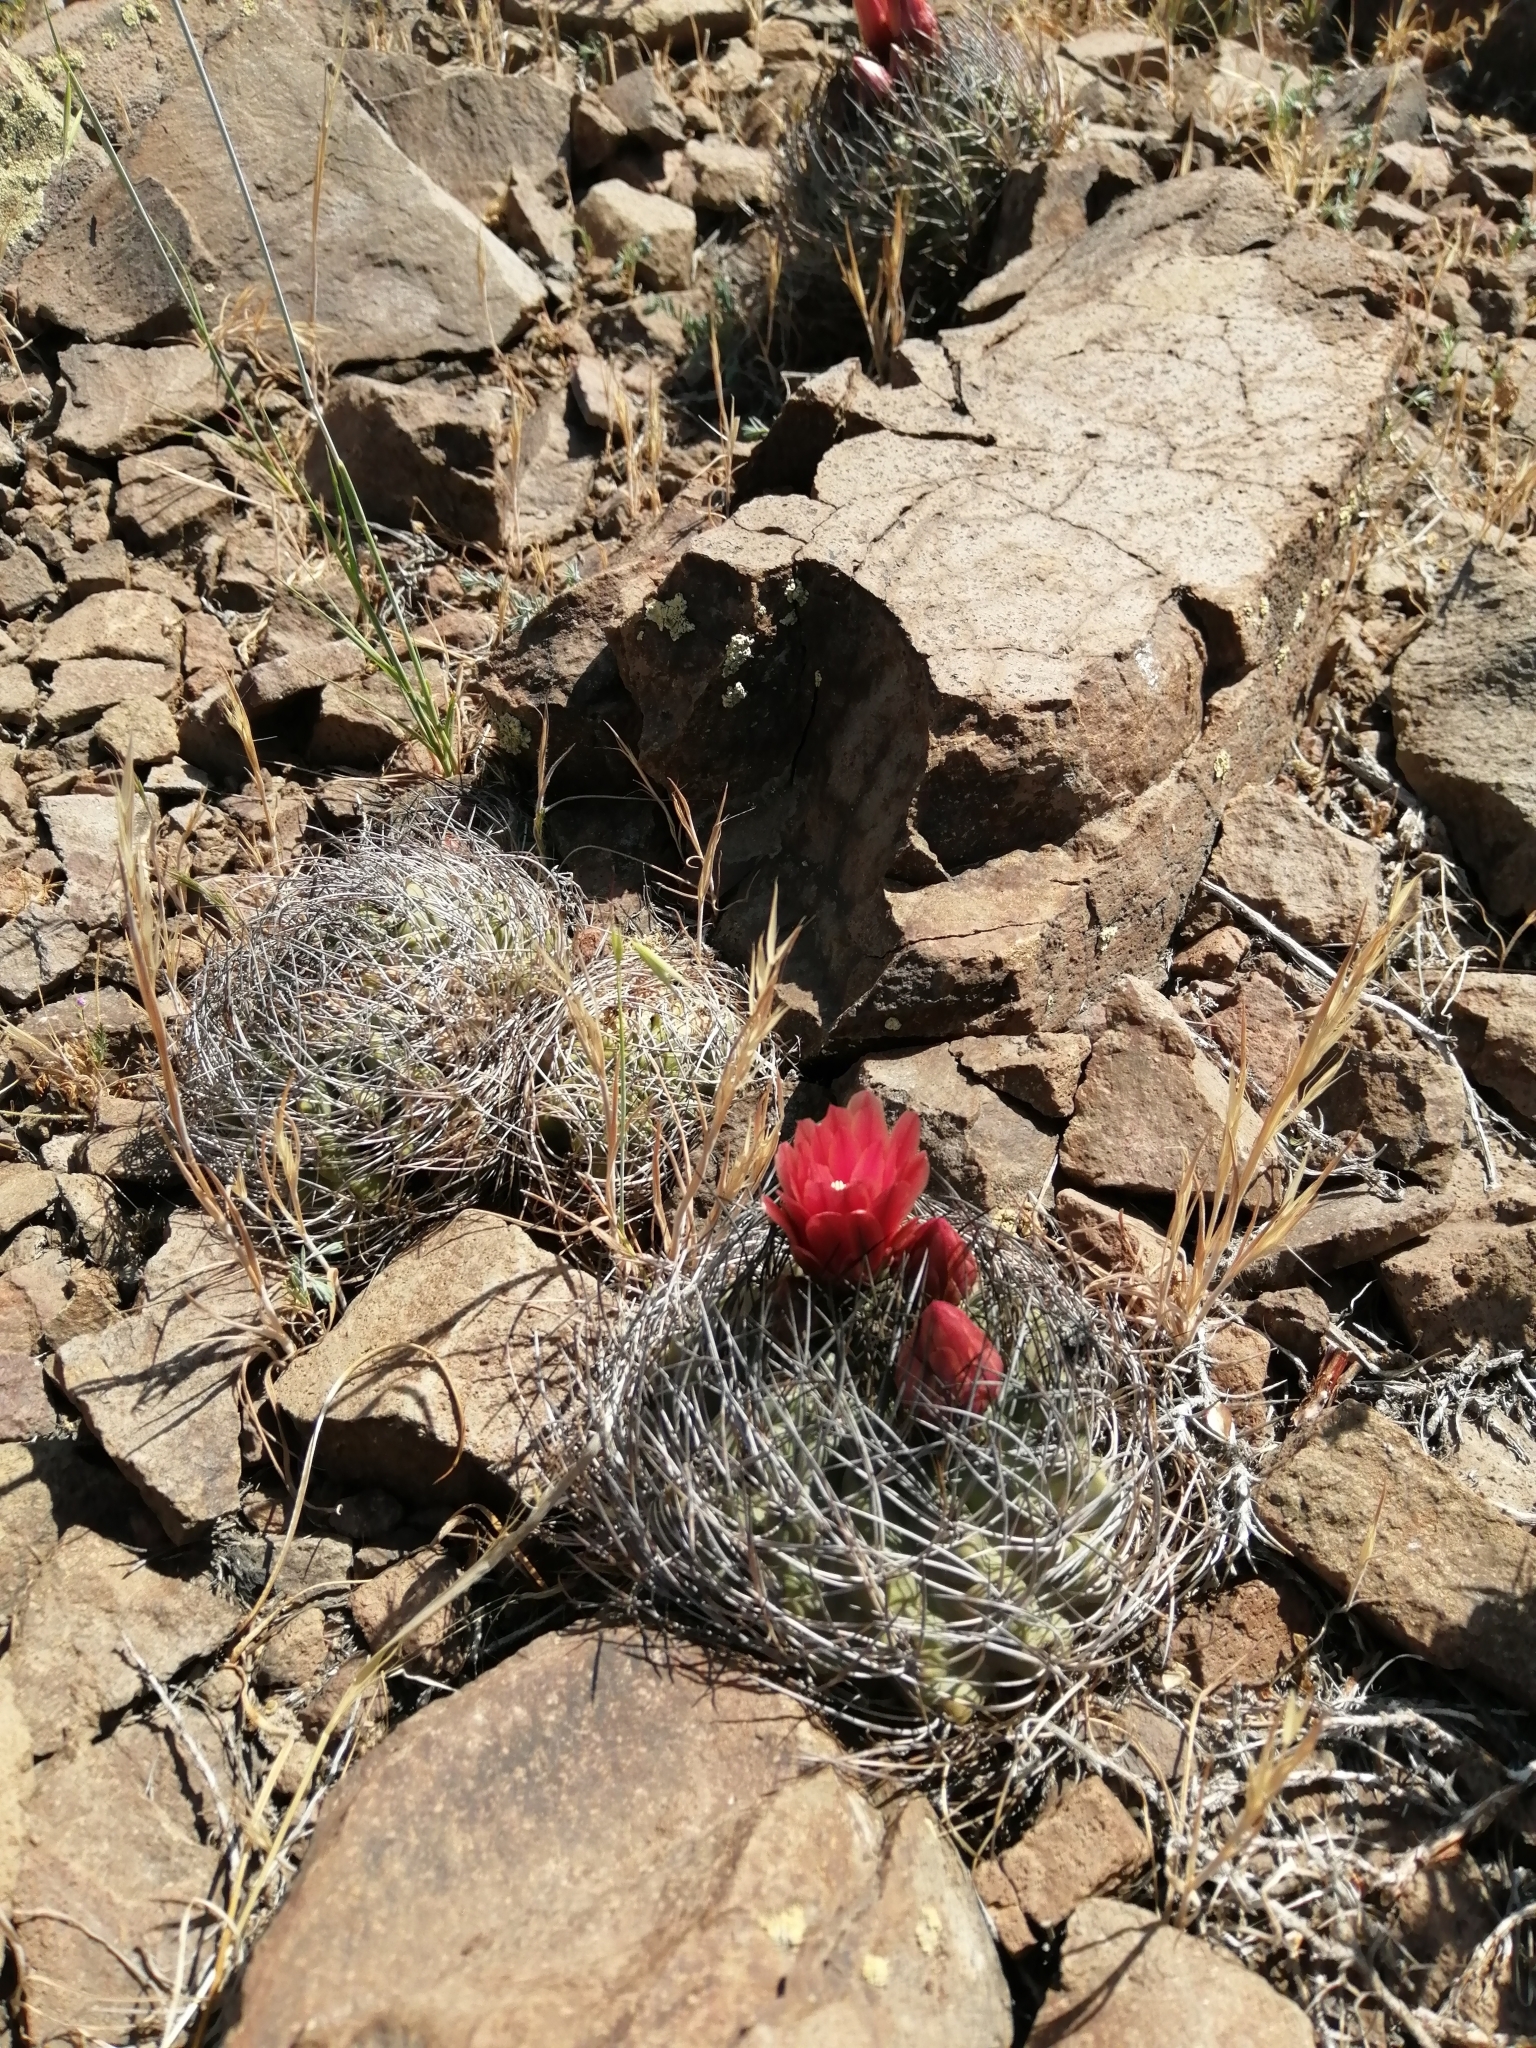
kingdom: Plantae
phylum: Tracheophyta
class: Magnoliopsida
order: Caryophyllales
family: Cactaceae
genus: Eriosyce
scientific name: Eriosyce curvispina
